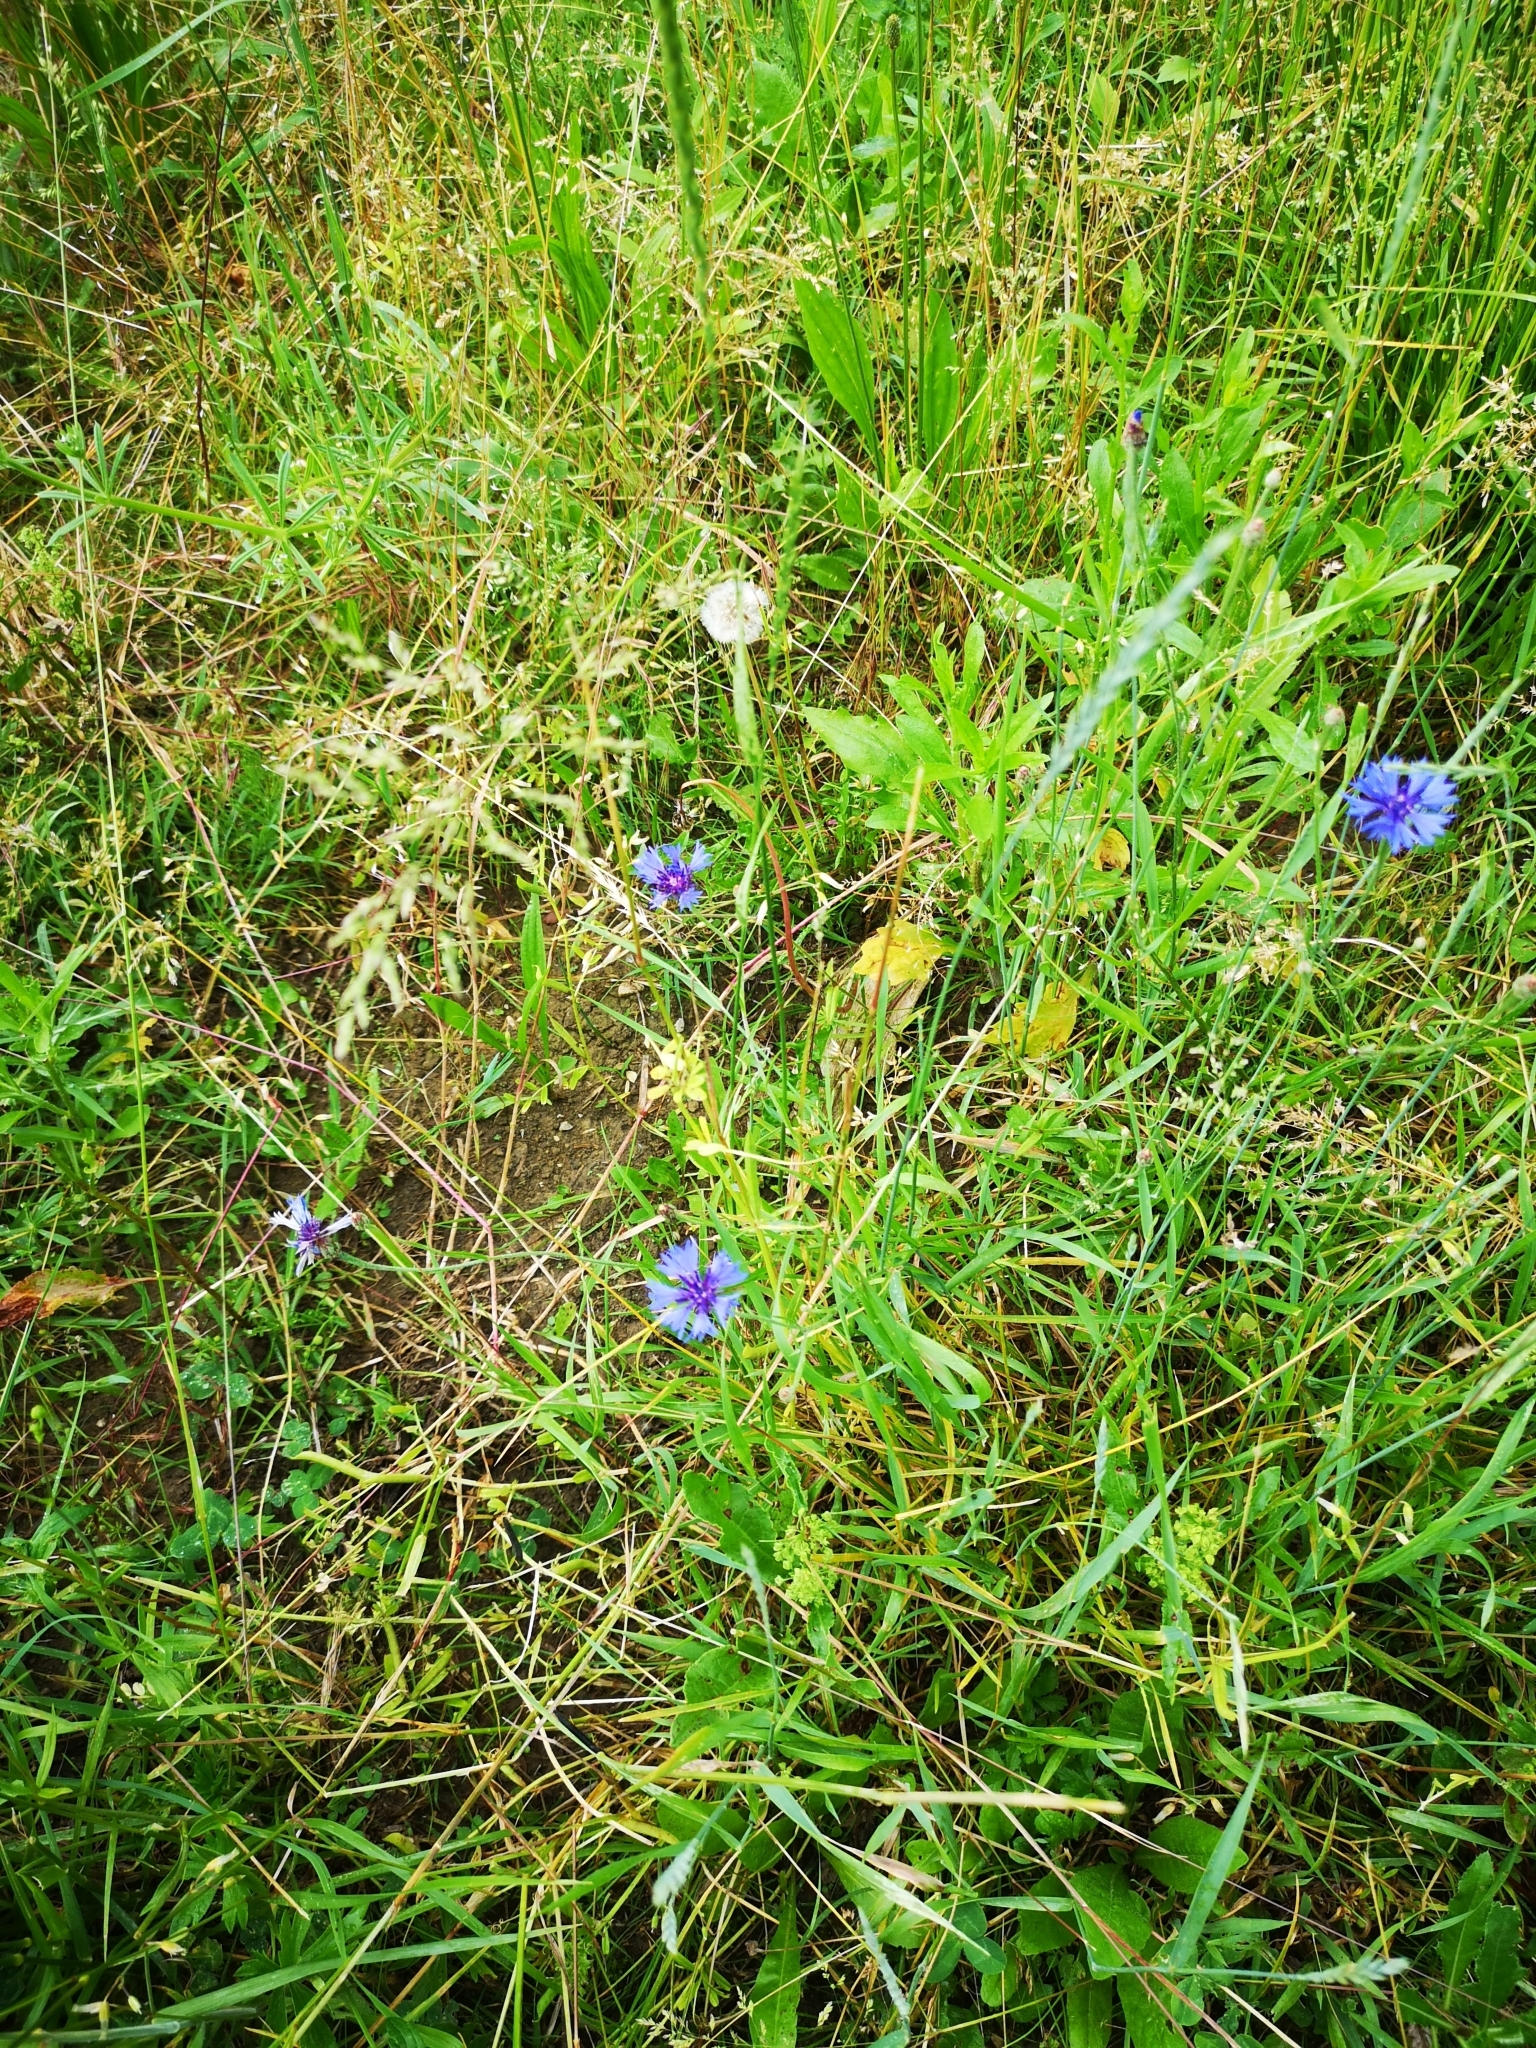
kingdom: Plantae
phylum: Tracheophyta
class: Magnoliopsida
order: Asterales
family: Asteraceae
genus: Centaurea
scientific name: Centaurea cyanus
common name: Cornflower
